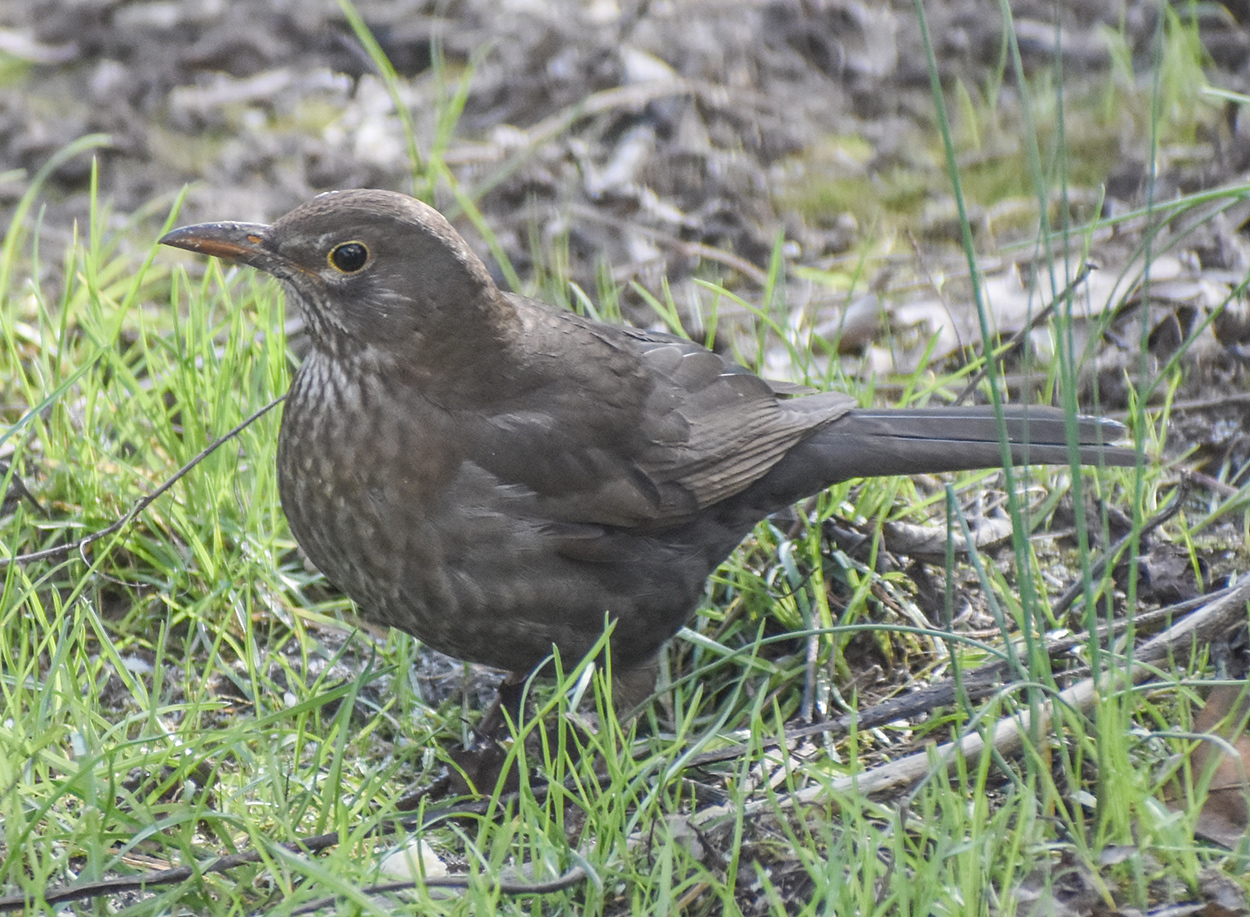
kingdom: Animalia
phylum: Chordata
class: Aves
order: Passeriformes
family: Turdidae
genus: Turdus
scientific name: Turdus merula
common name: Common blackbird
